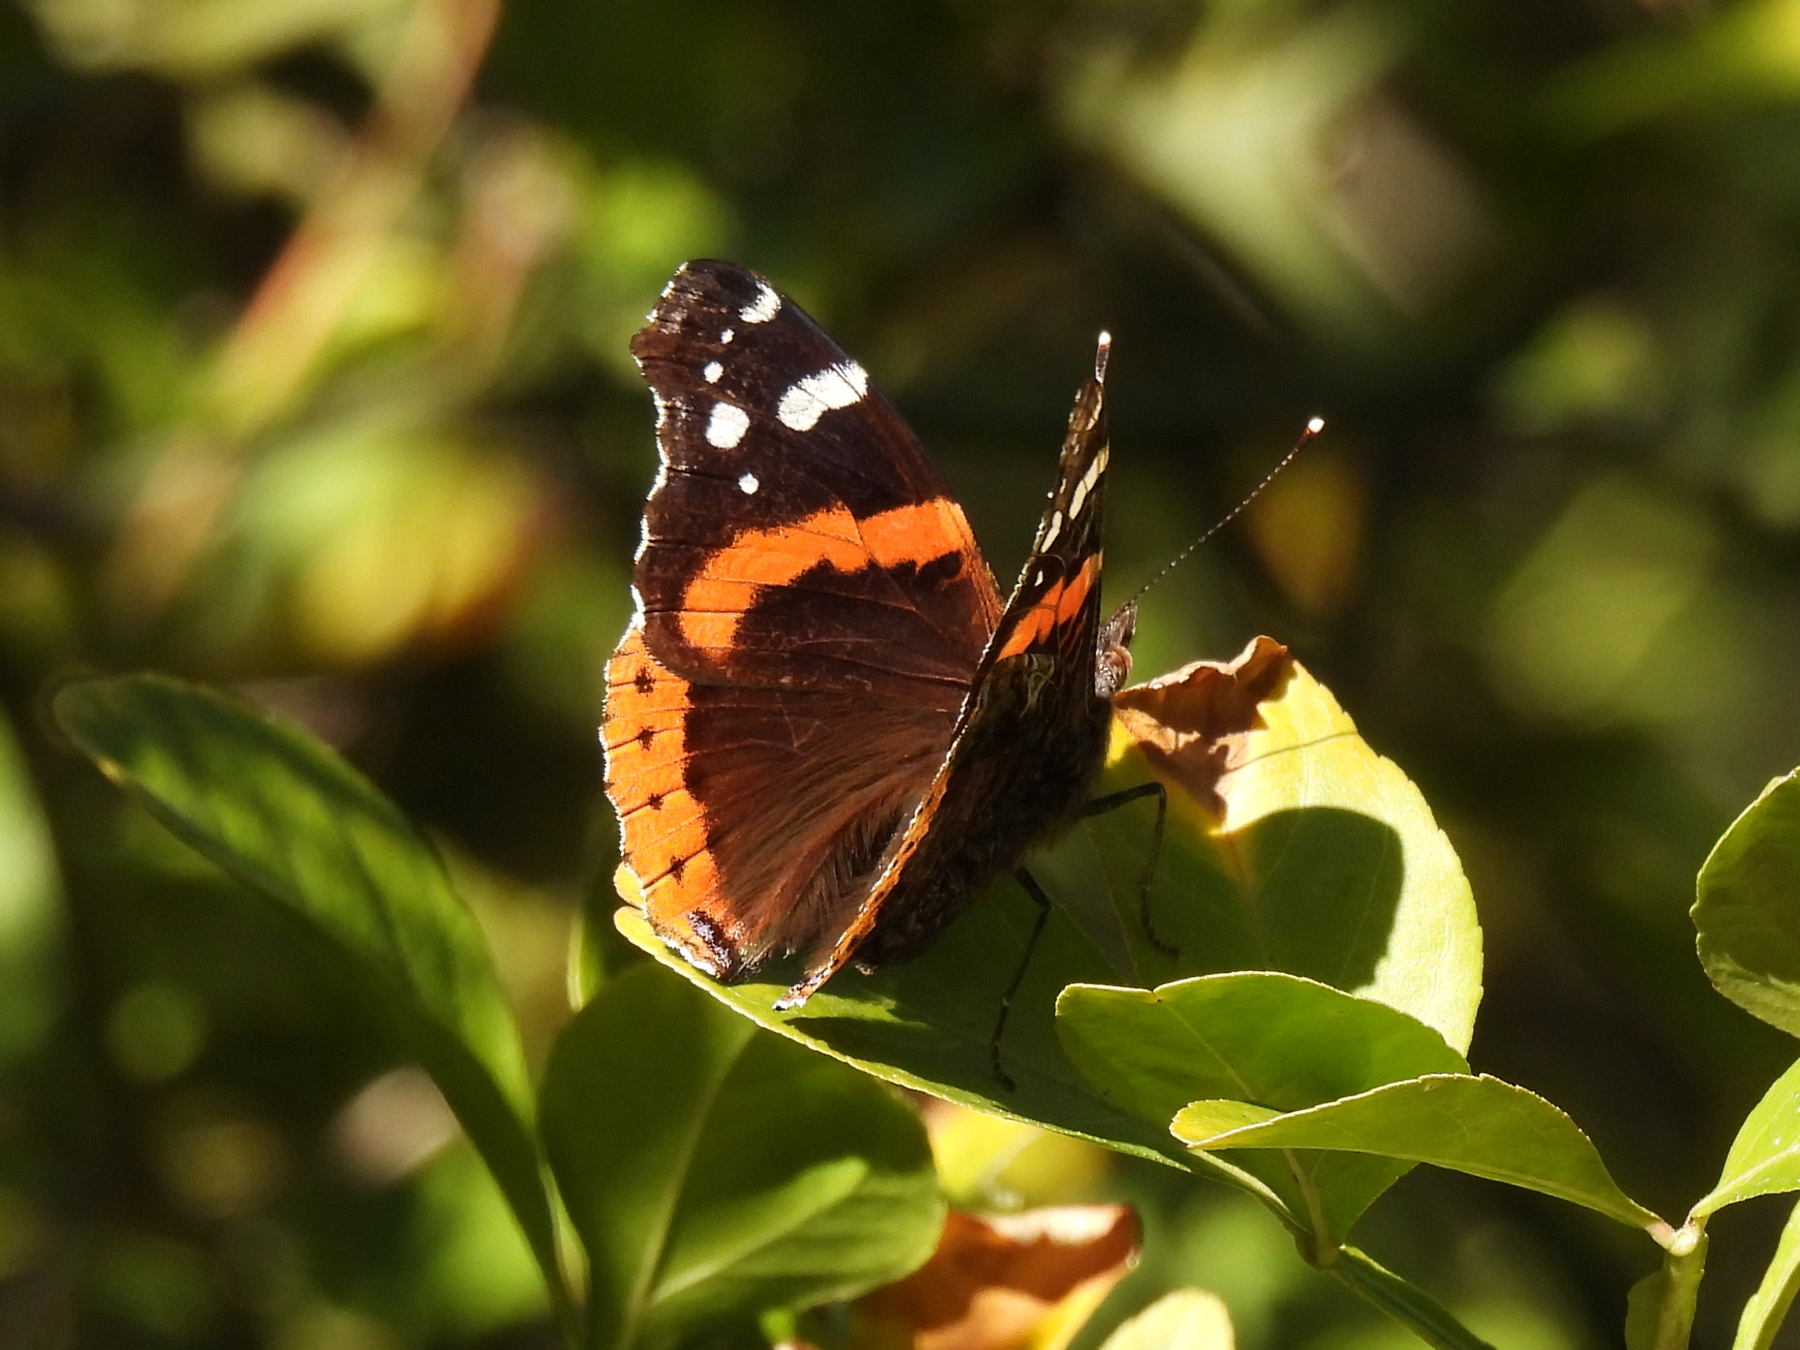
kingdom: Animalia
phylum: Arthropoda
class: Insecta
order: Lepidoptera
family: Nymphalidae
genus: Vanessa
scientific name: Vanessa atalanta
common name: Red admiral
